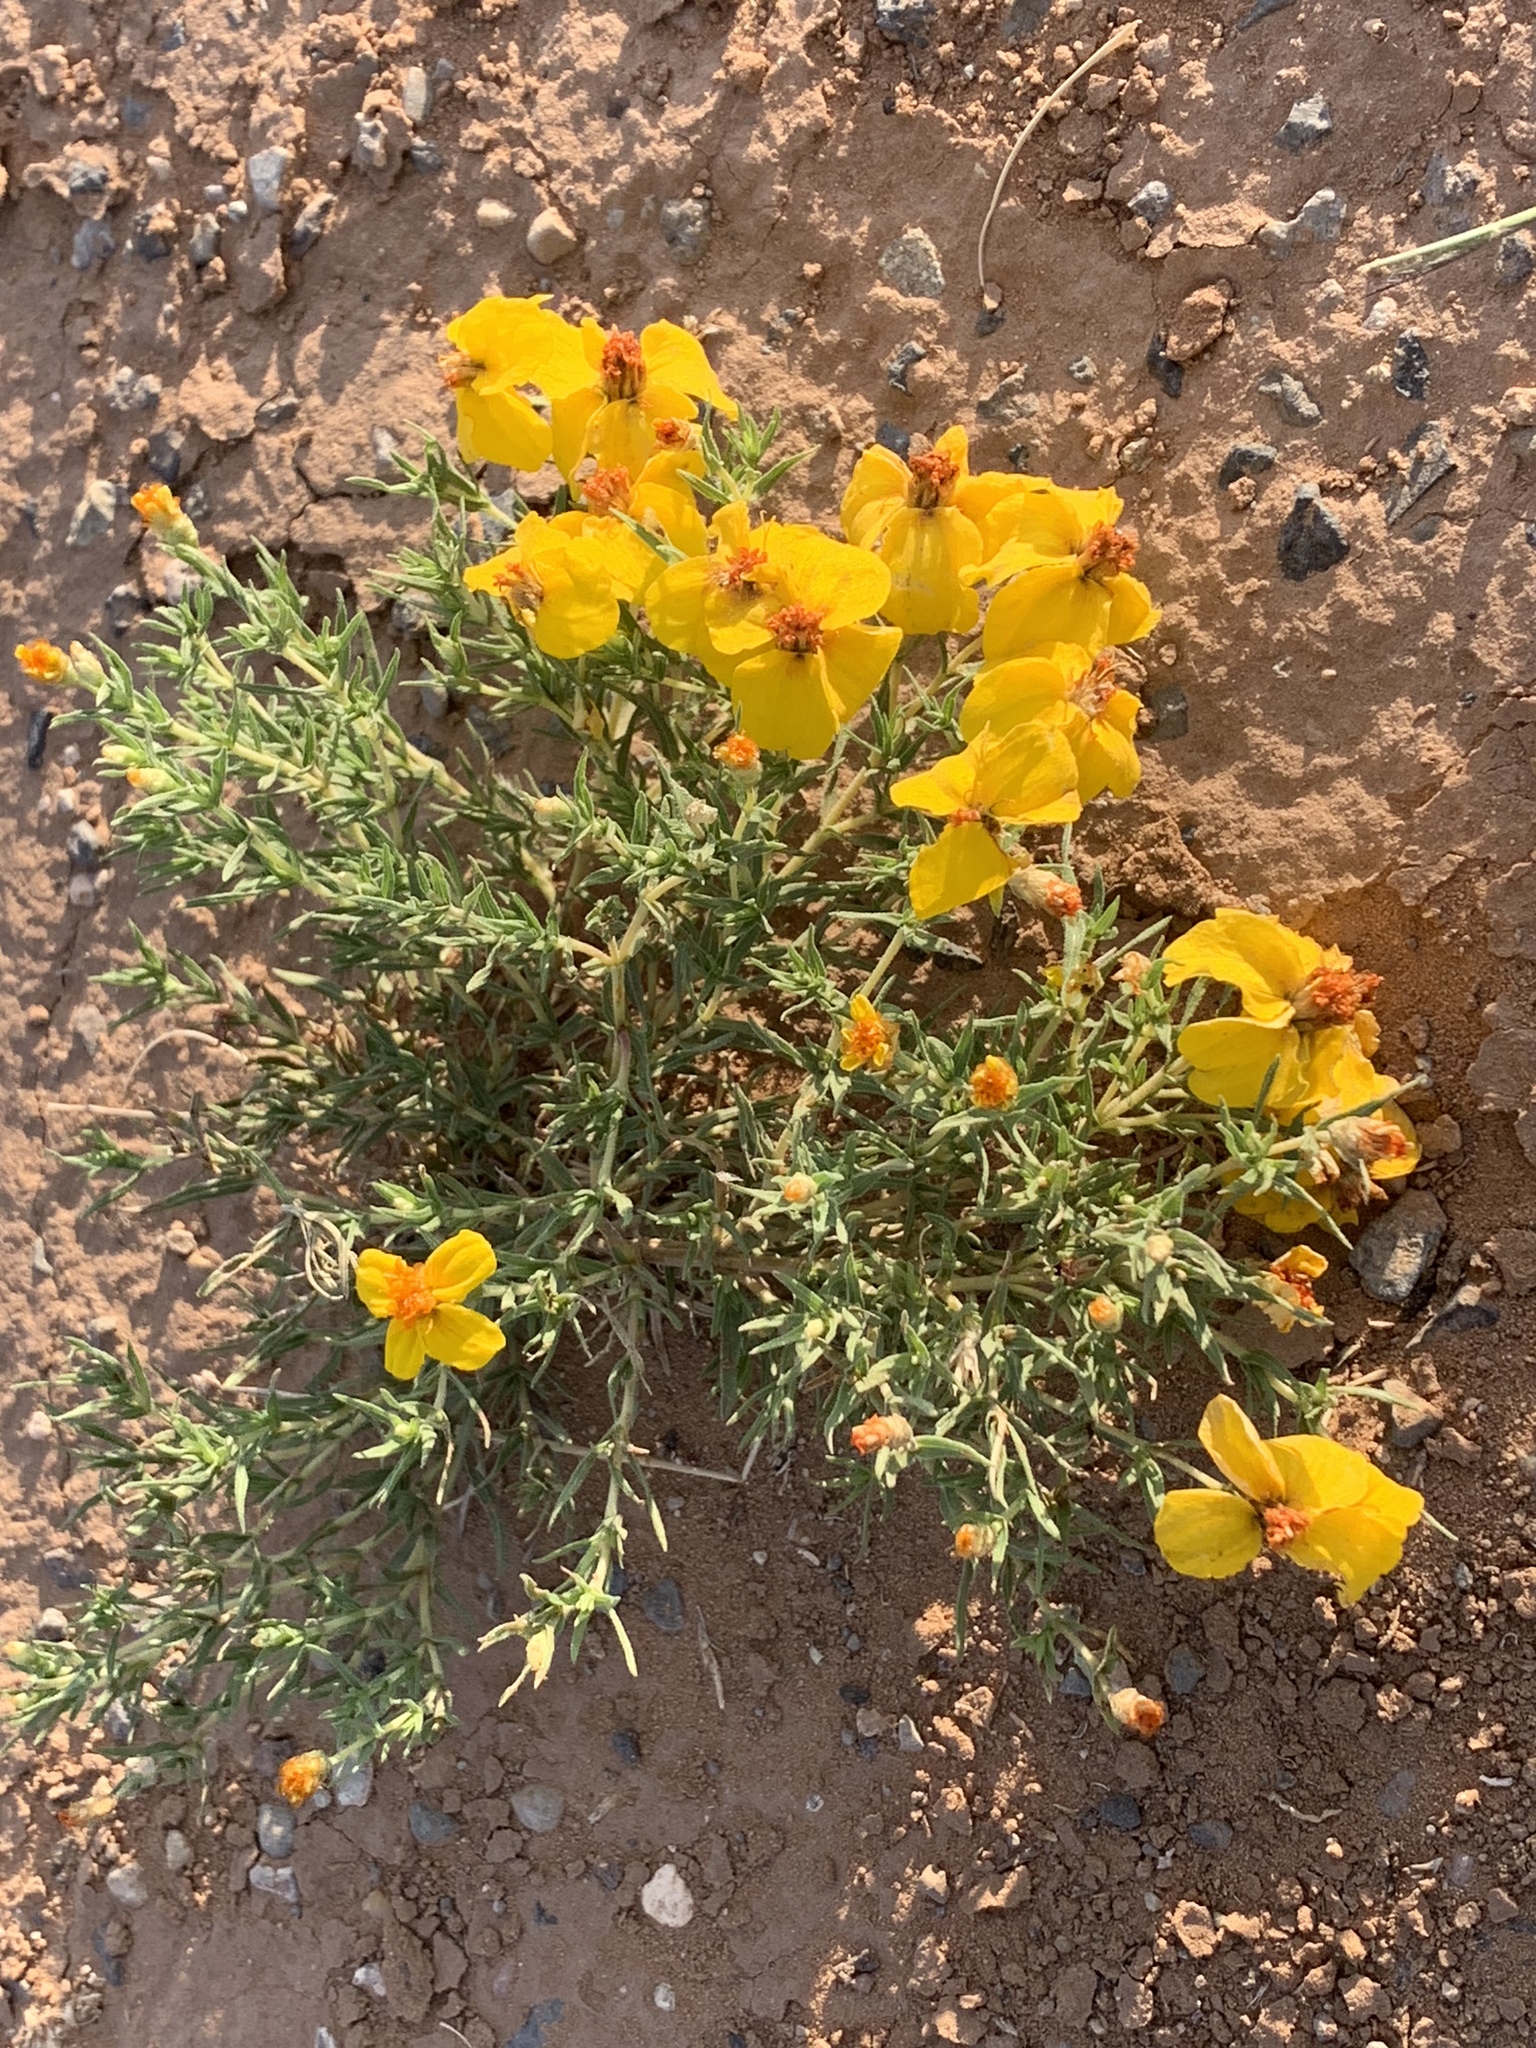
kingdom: Plantae
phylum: Tracheophyta
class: Magnoliopsida
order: Asterales
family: Asteraceae
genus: Zinnia
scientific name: Zinnia grandiflora
